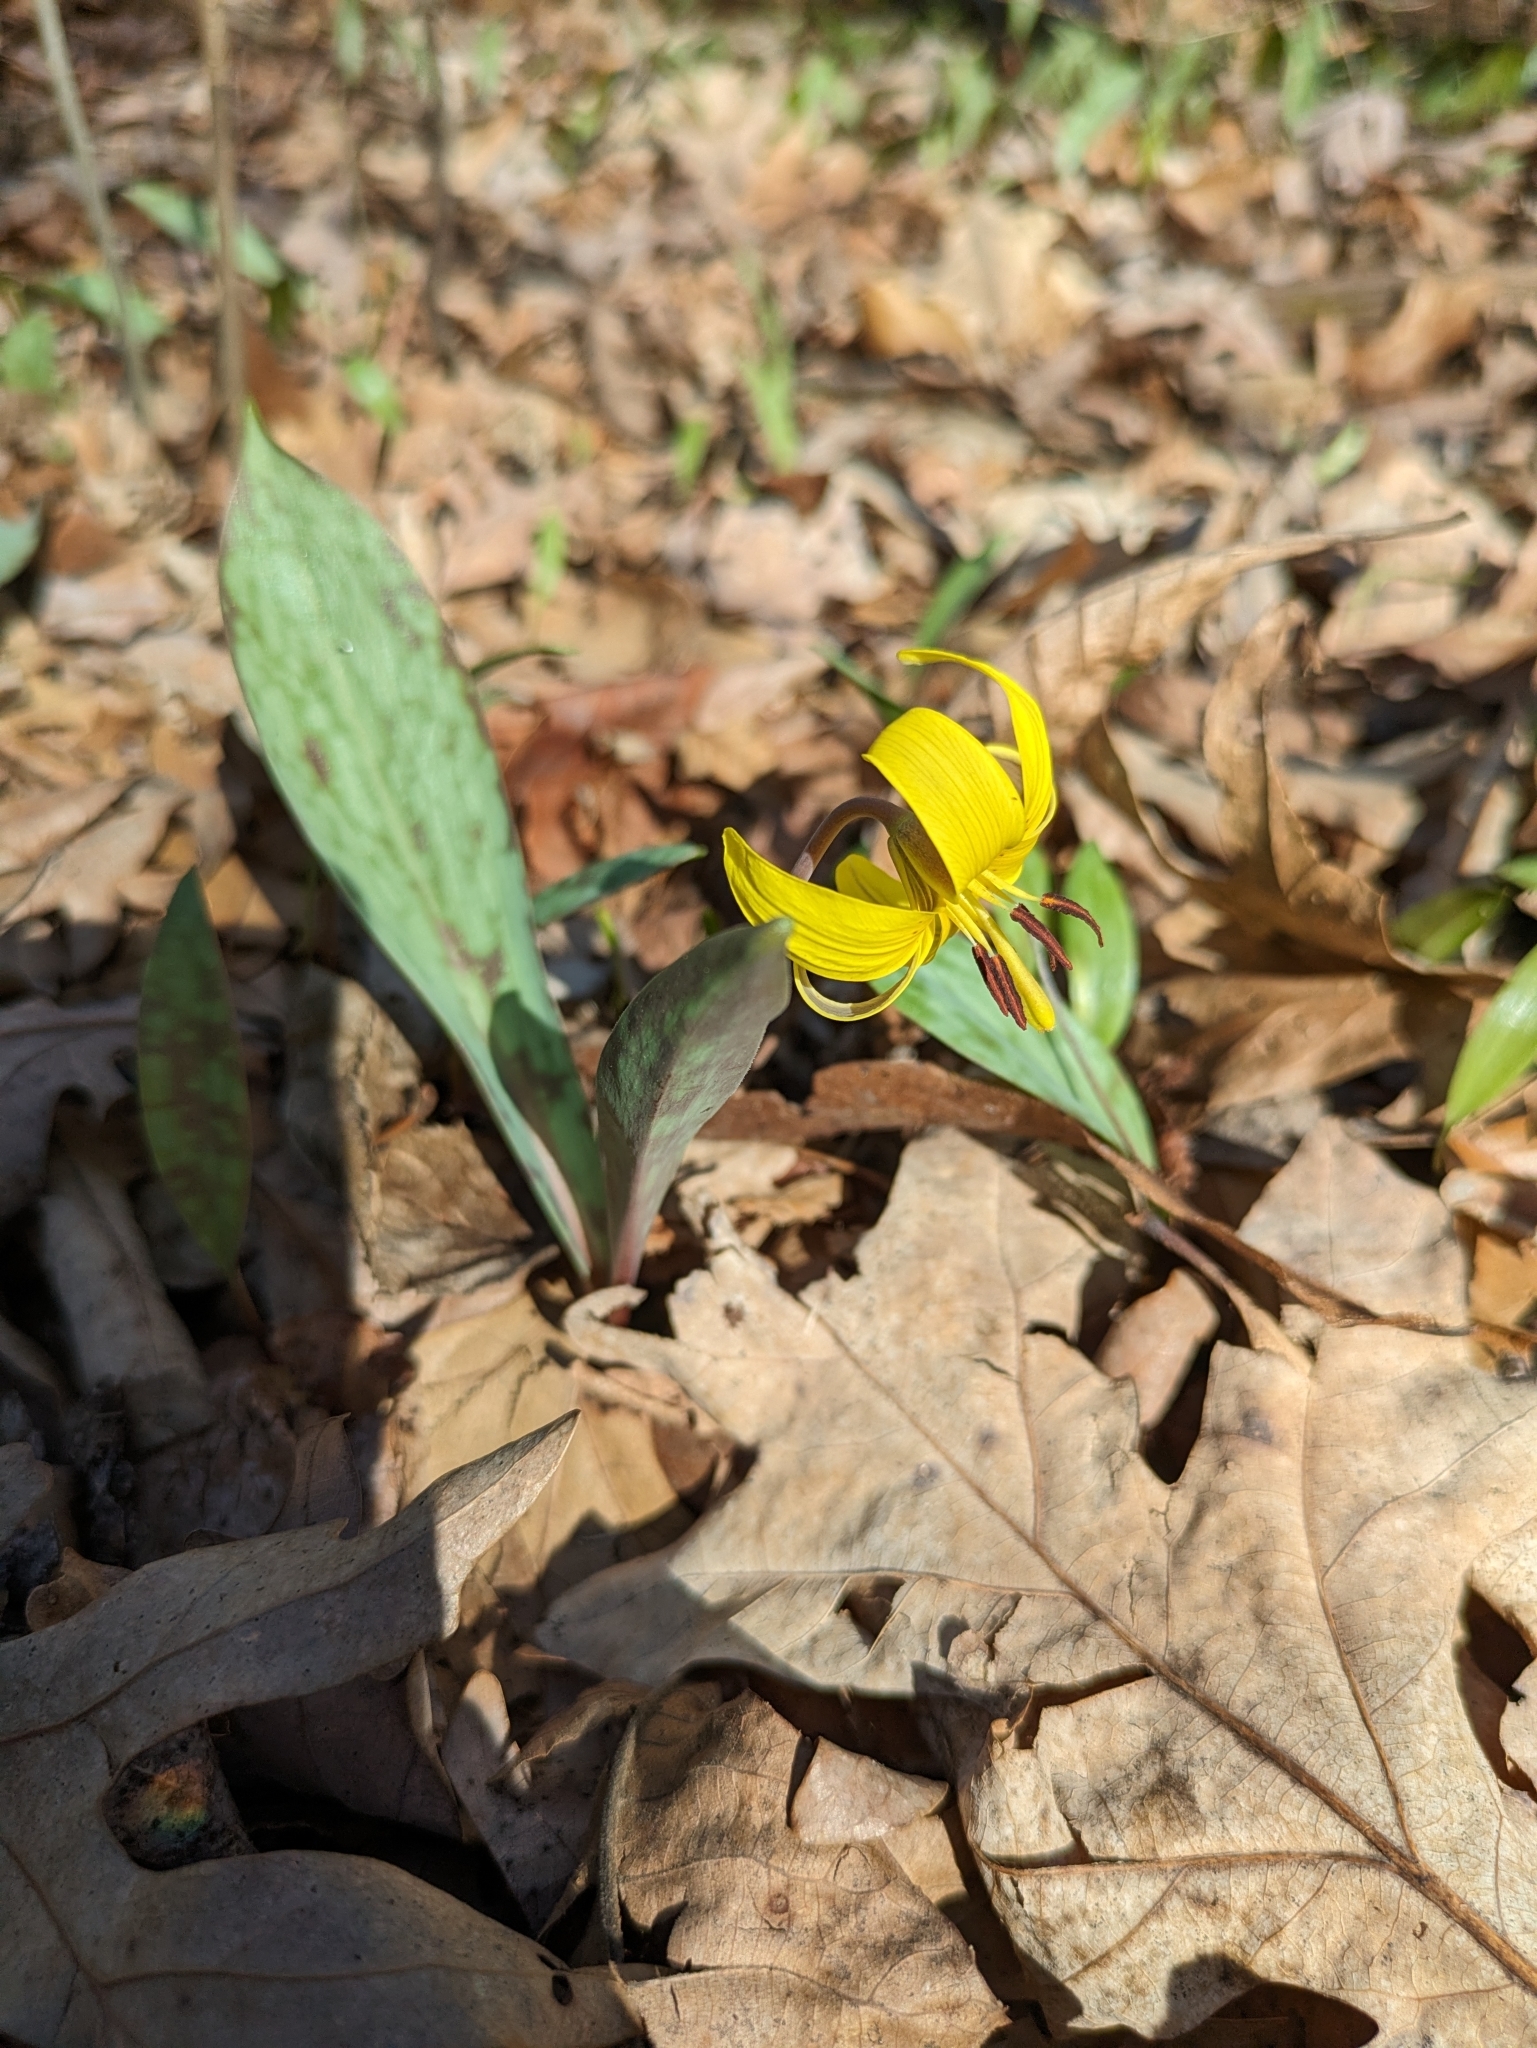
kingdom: Plantae
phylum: Tracheophyta
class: Liliopsida
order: Liliales
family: Liliaceae
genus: Erythronium
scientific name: Erythronium americanum
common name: Yellow adder's-tongue
